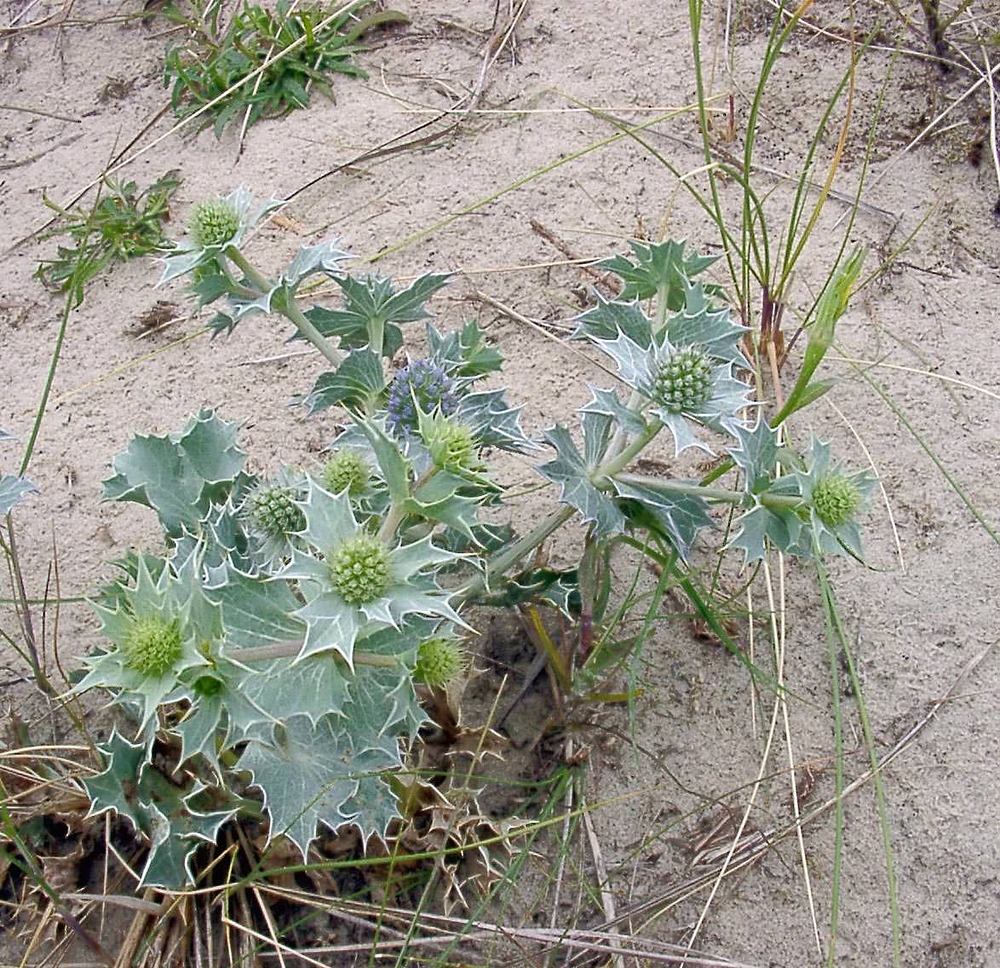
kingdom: Plantae
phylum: Tracheophyta
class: Magnoliopsida
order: Apiales
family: Apiaceae
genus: Eryngium
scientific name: Eryngium maritimum
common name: Sea-holly
